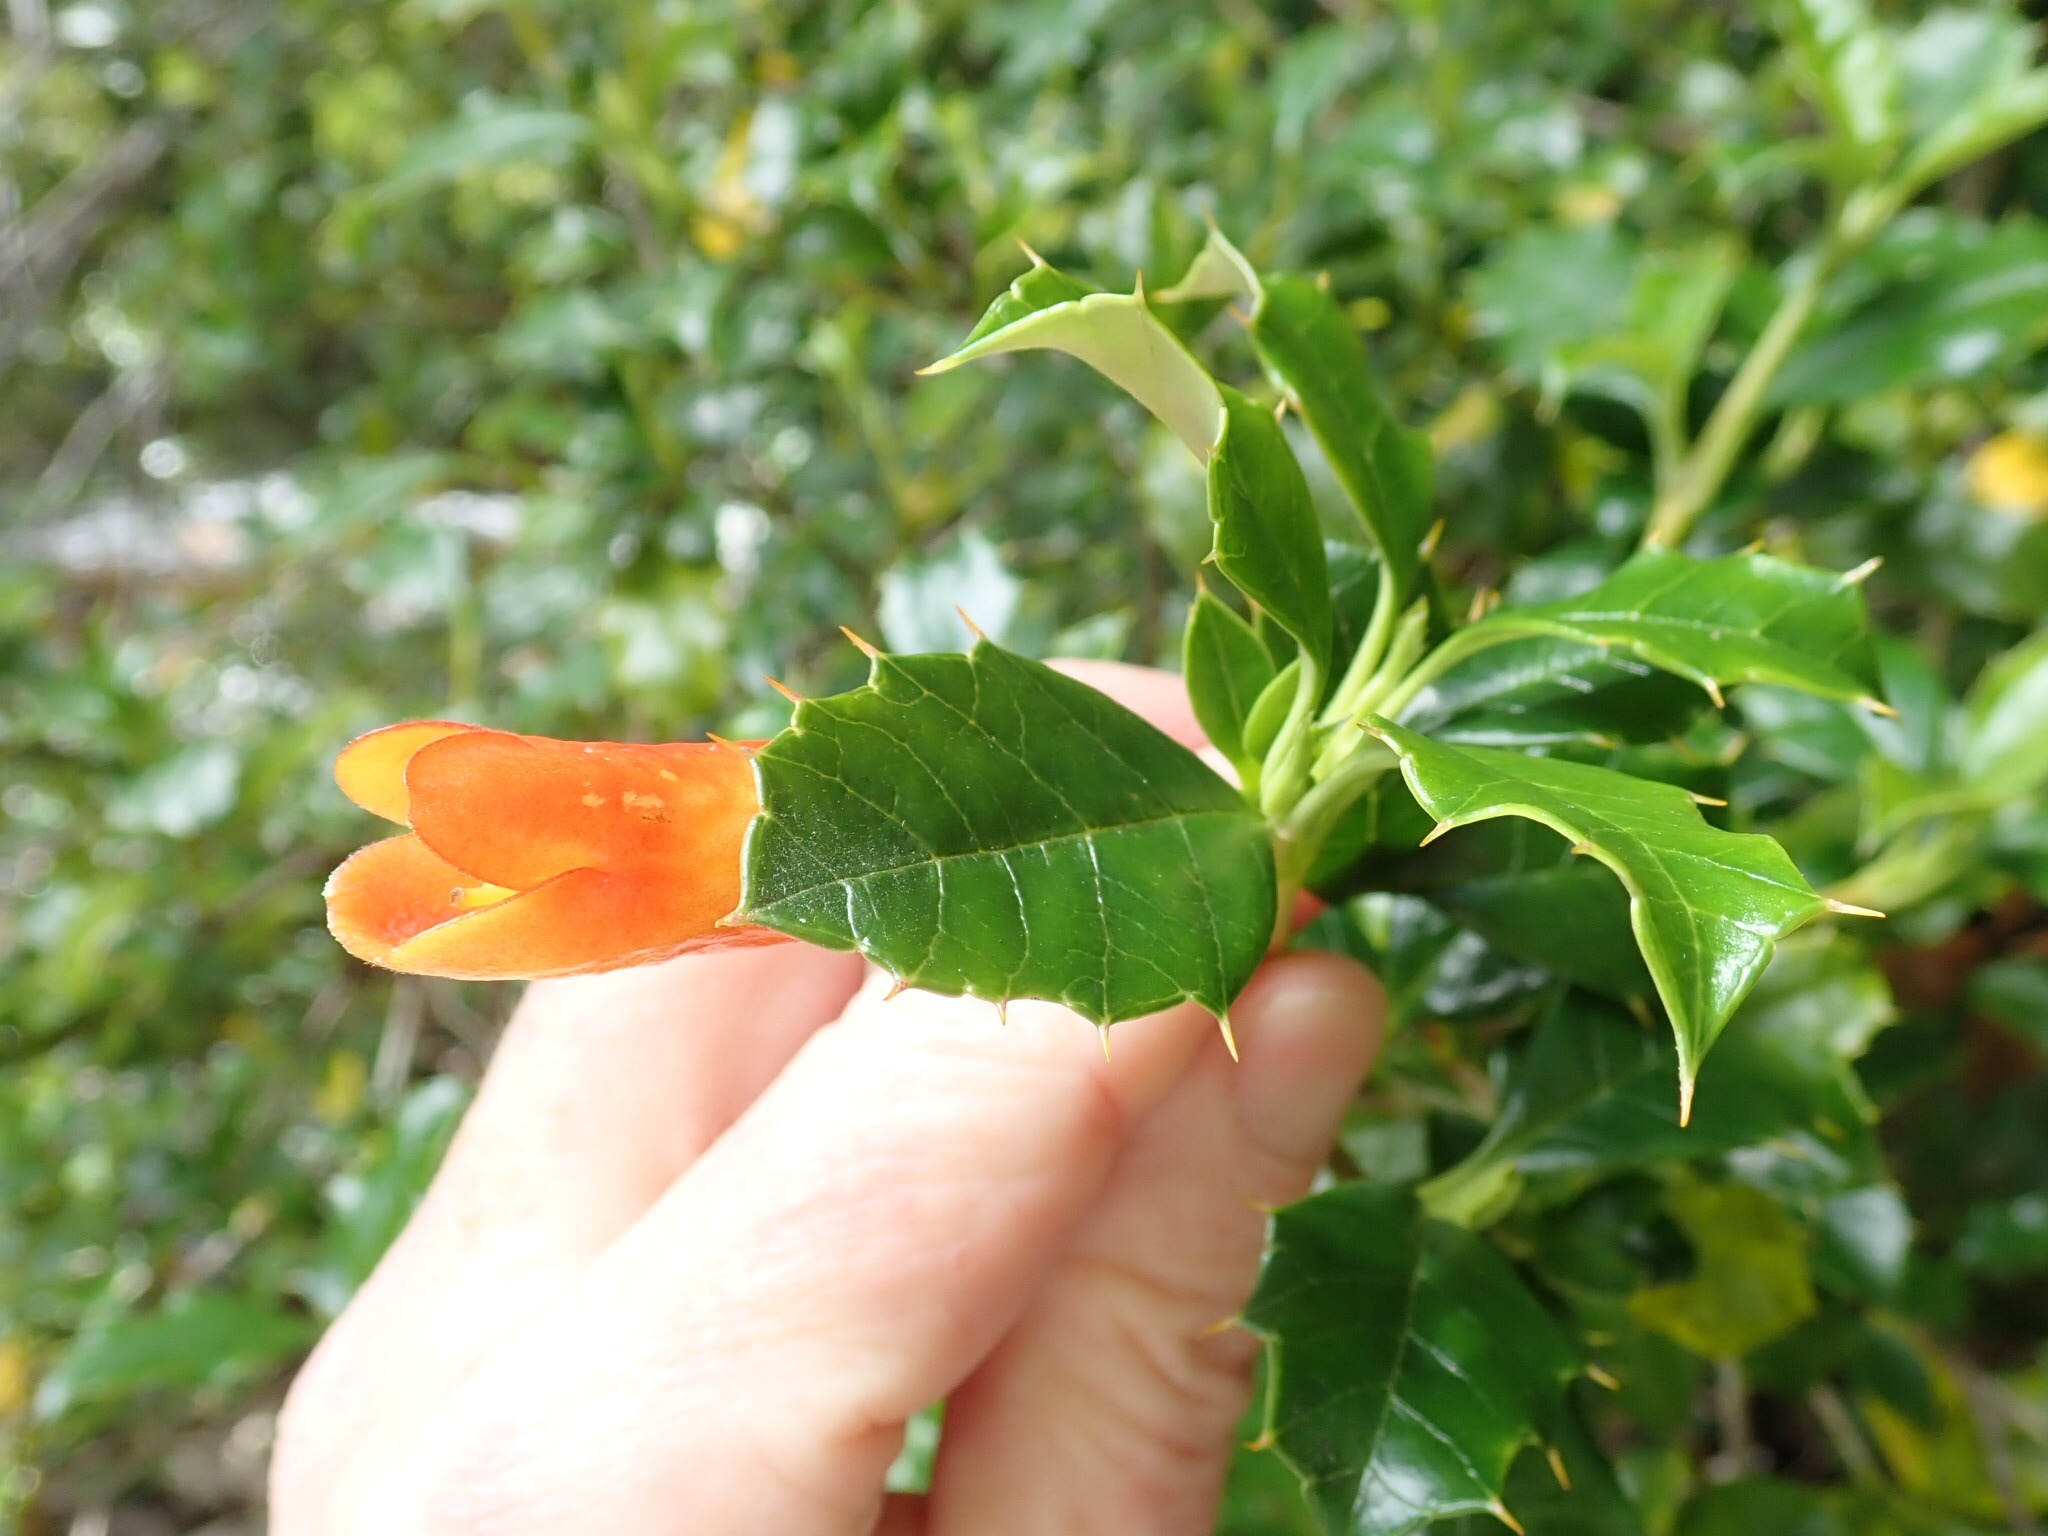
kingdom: Plantae
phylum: Tracheophyta
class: Magnoliopsida
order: Bruniales
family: Columelliaceae
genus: Desfontainia
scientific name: Desfontainia fulgens
